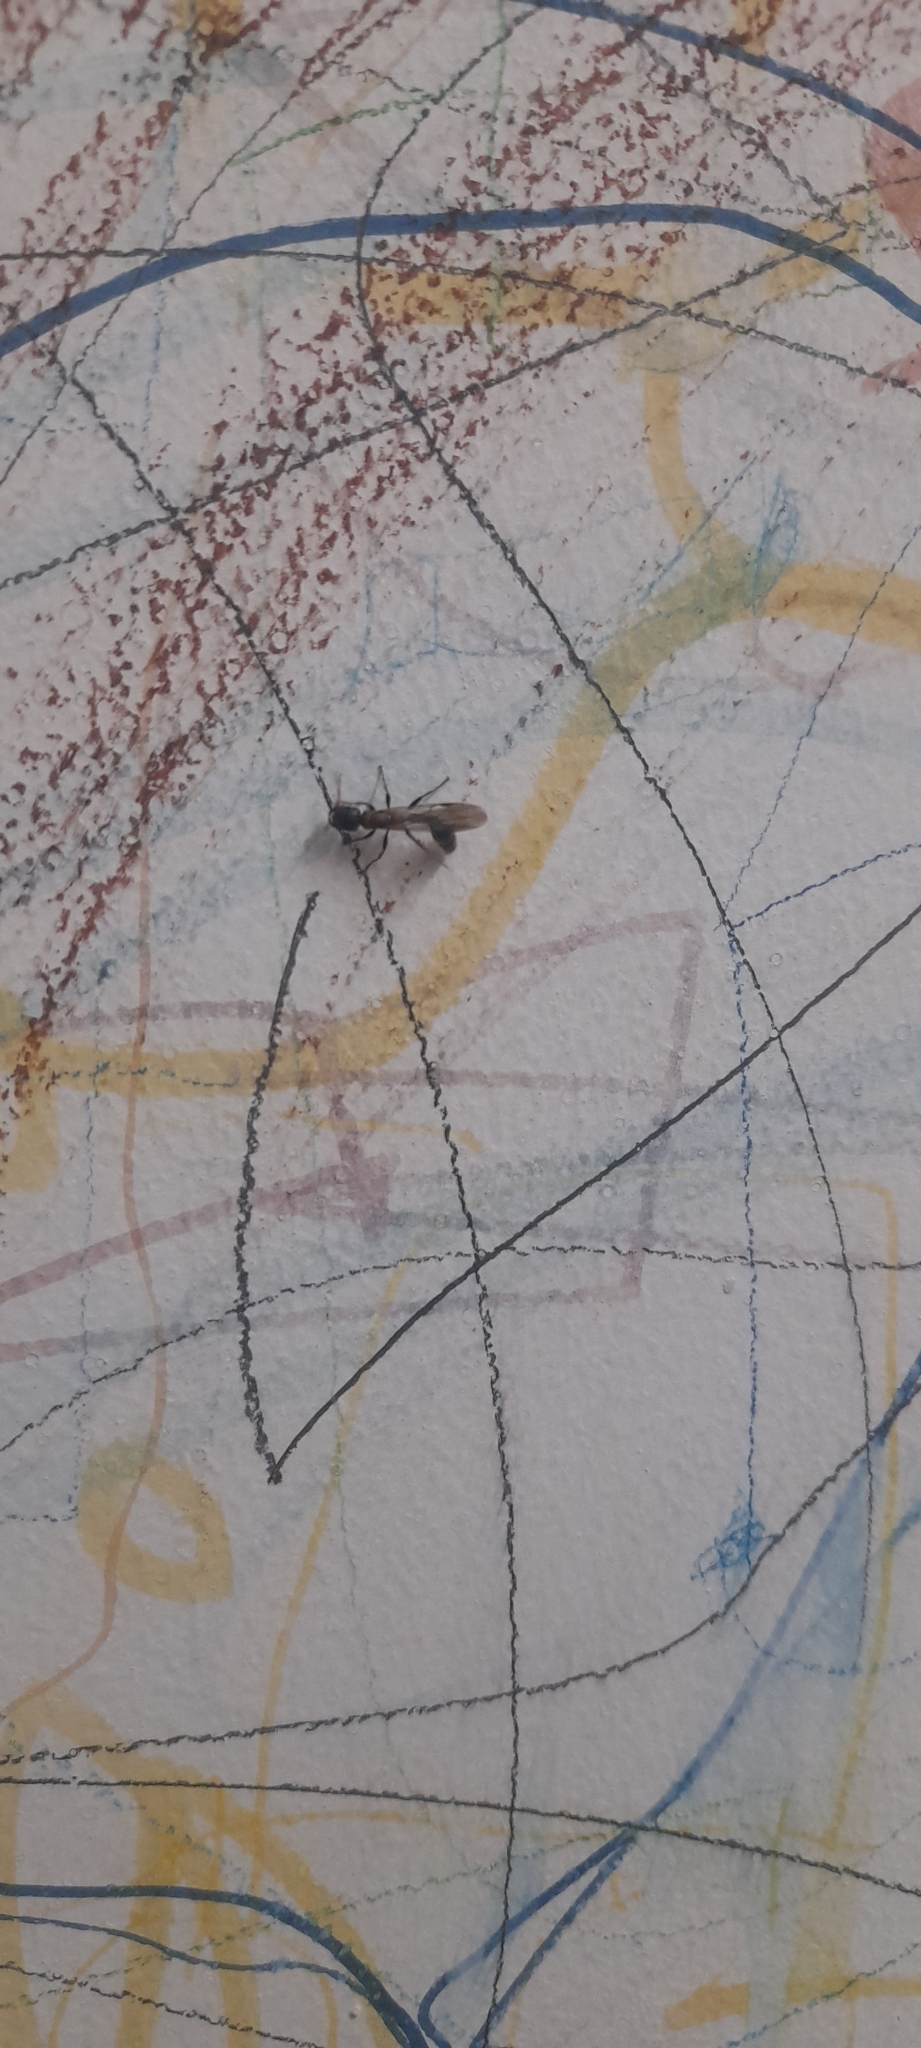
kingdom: Animalia
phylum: Arthropoda
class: Insecta
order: Hymenoptera
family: Formicidae
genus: Tetraponera
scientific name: Tetraponera rufonigra
